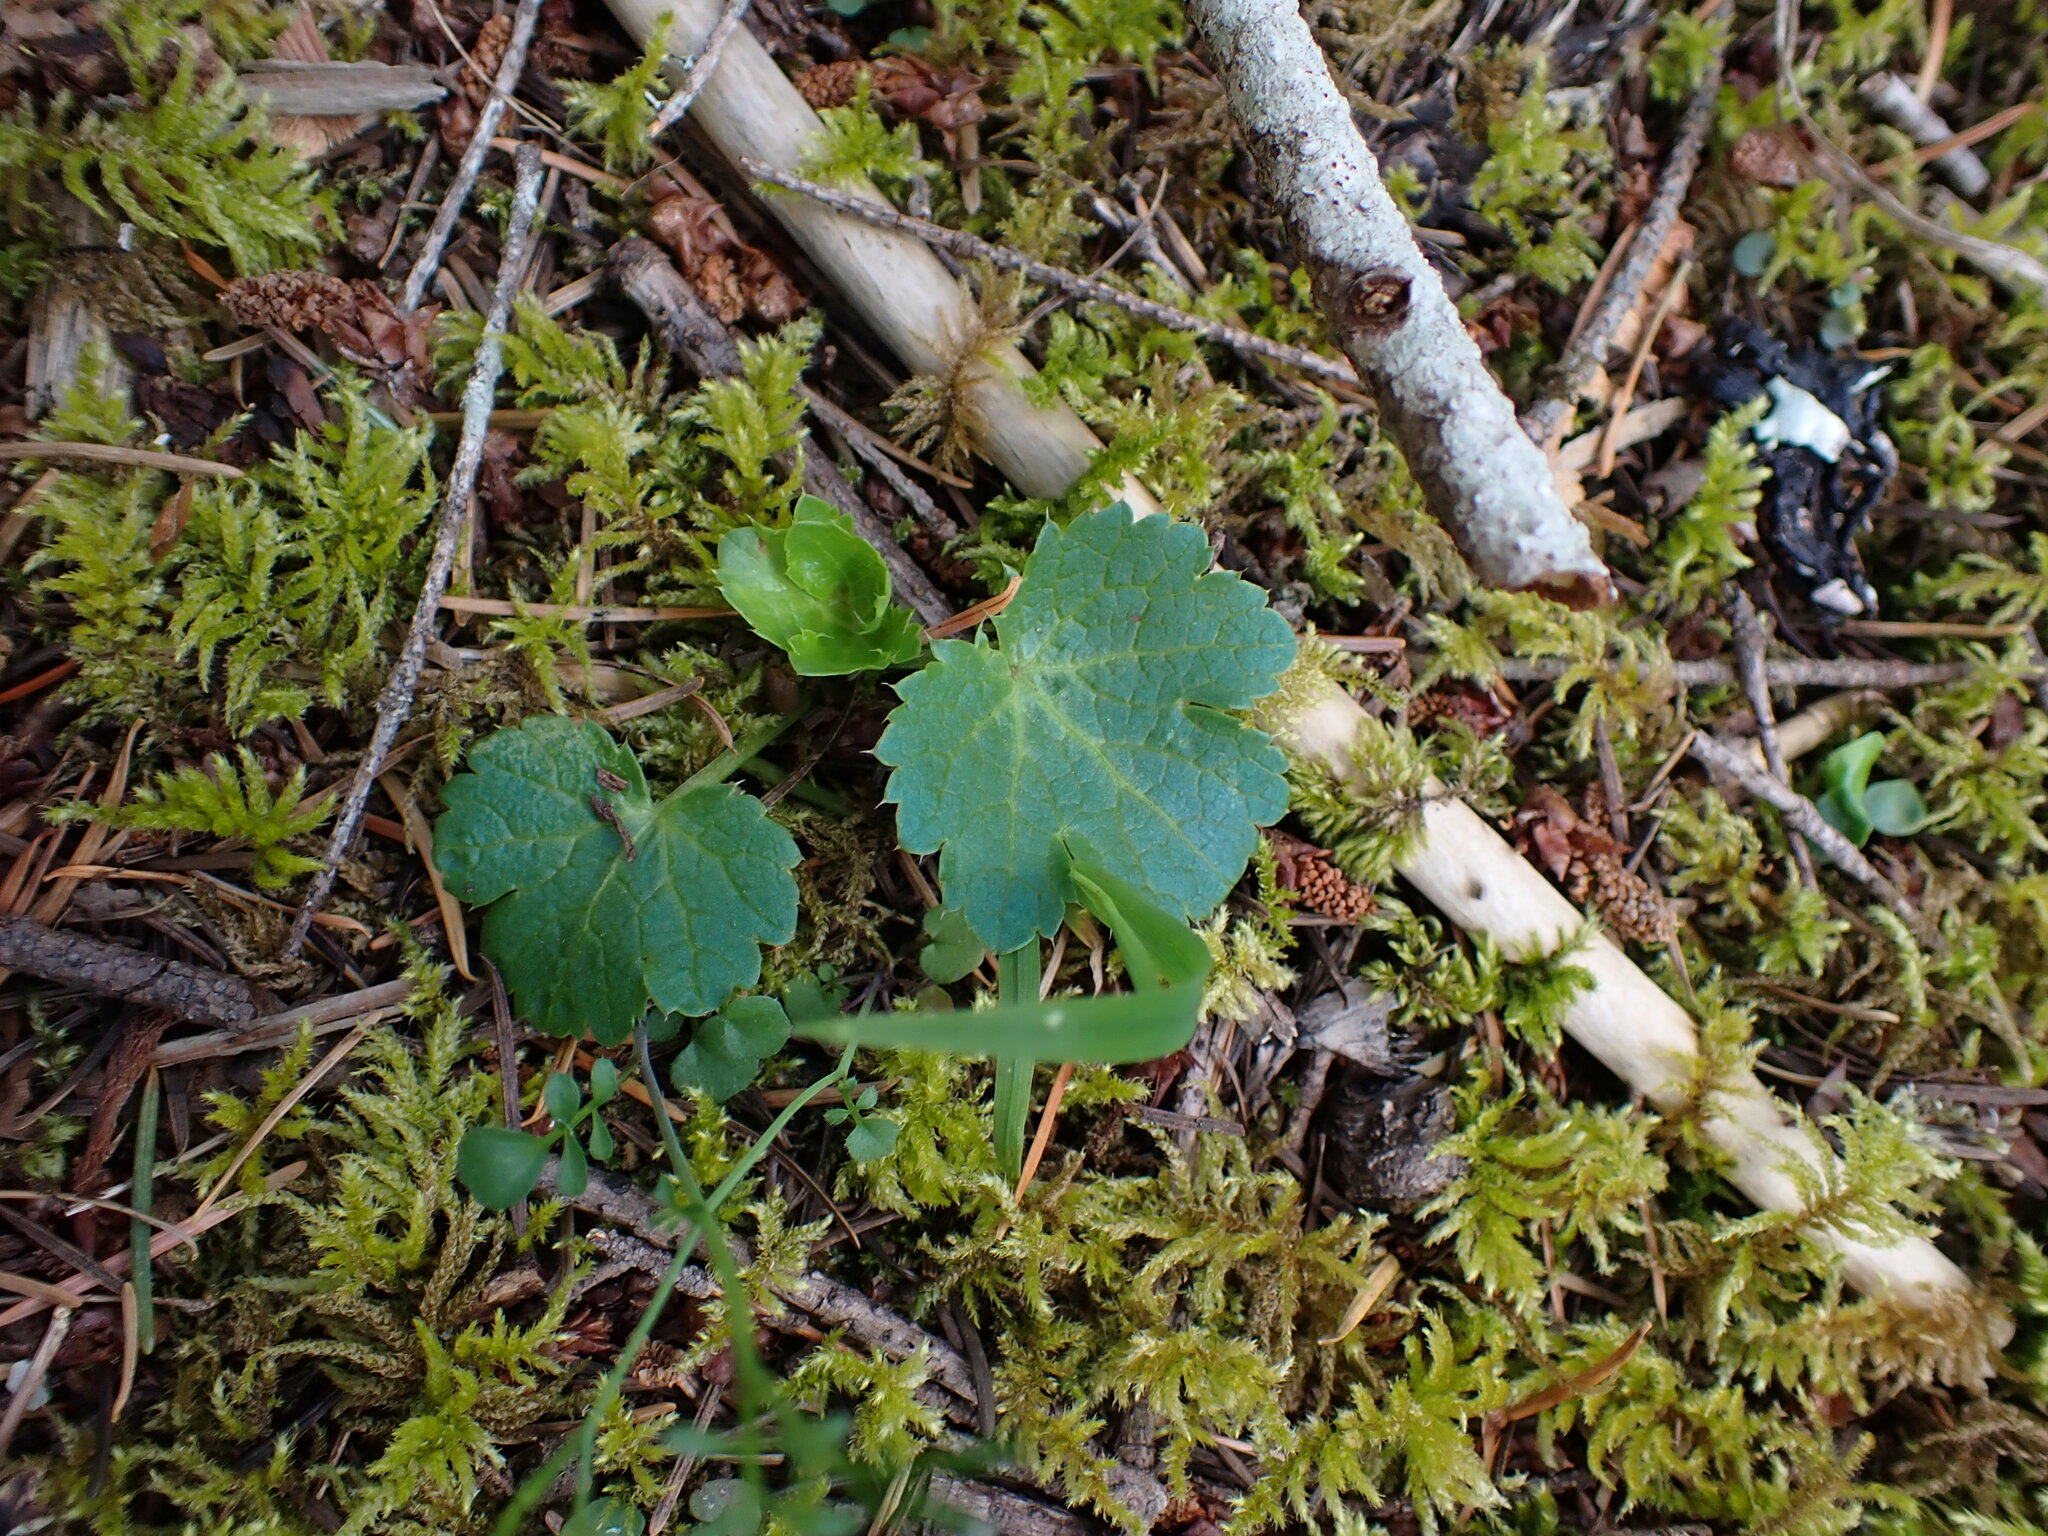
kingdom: Plantae
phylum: Tracheophyta
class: Magnoliopsida
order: Apiales
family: Apiaceae
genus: Sanicula
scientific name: Sanicula crassicaulis
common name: Western snakeroot
